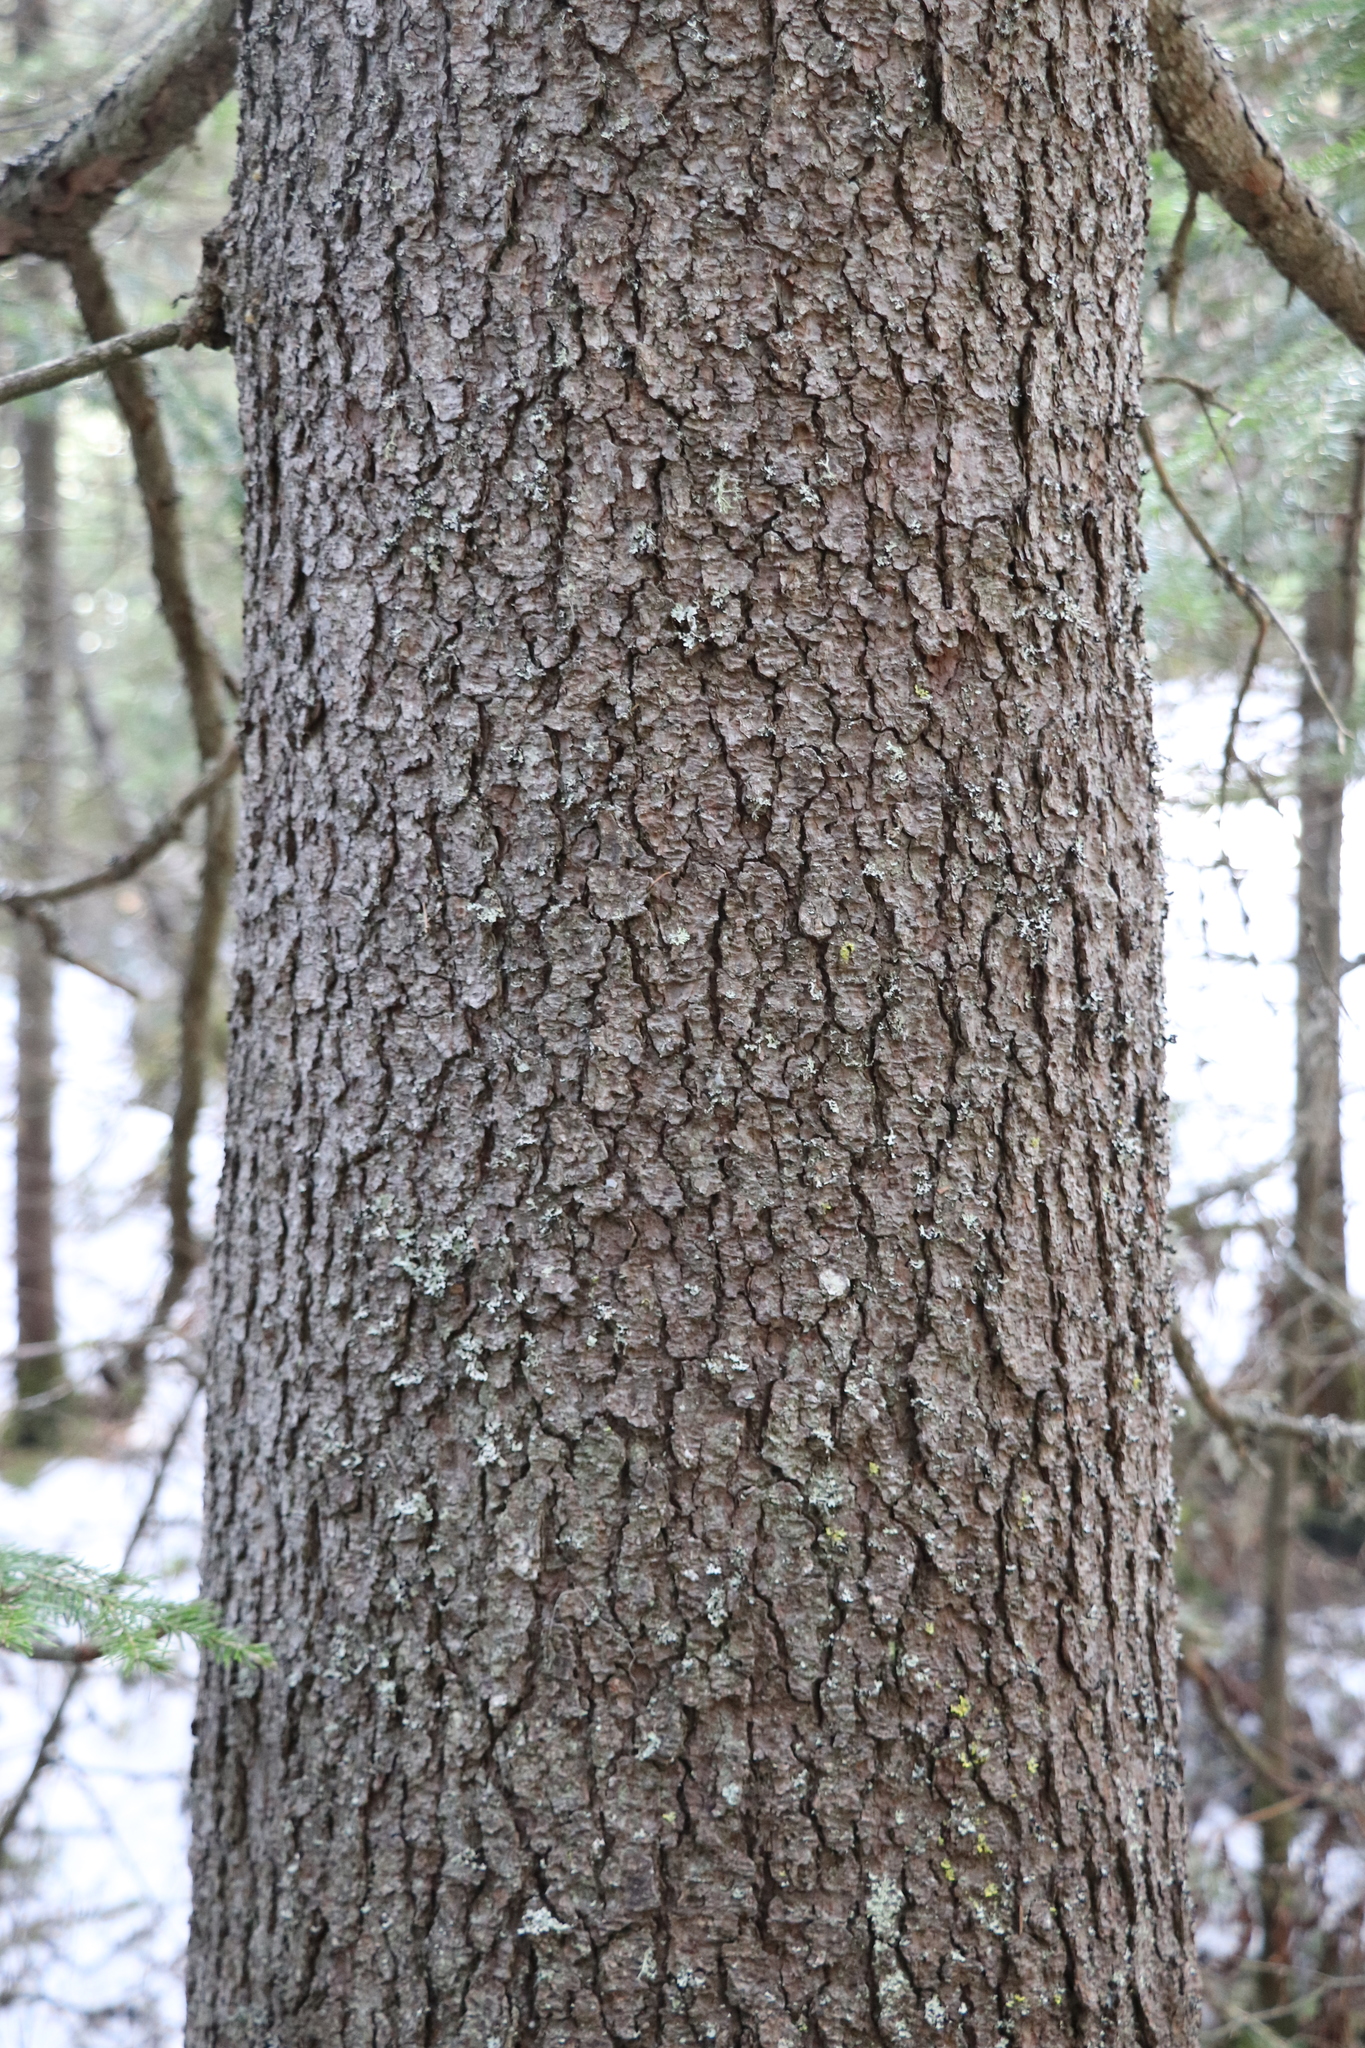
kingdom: Plantae
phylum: Tracheophyta
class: Pinopsida
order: Pinales
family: Pinaceae
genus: Picea
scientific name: Picea obovata
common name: Siberian spruce
